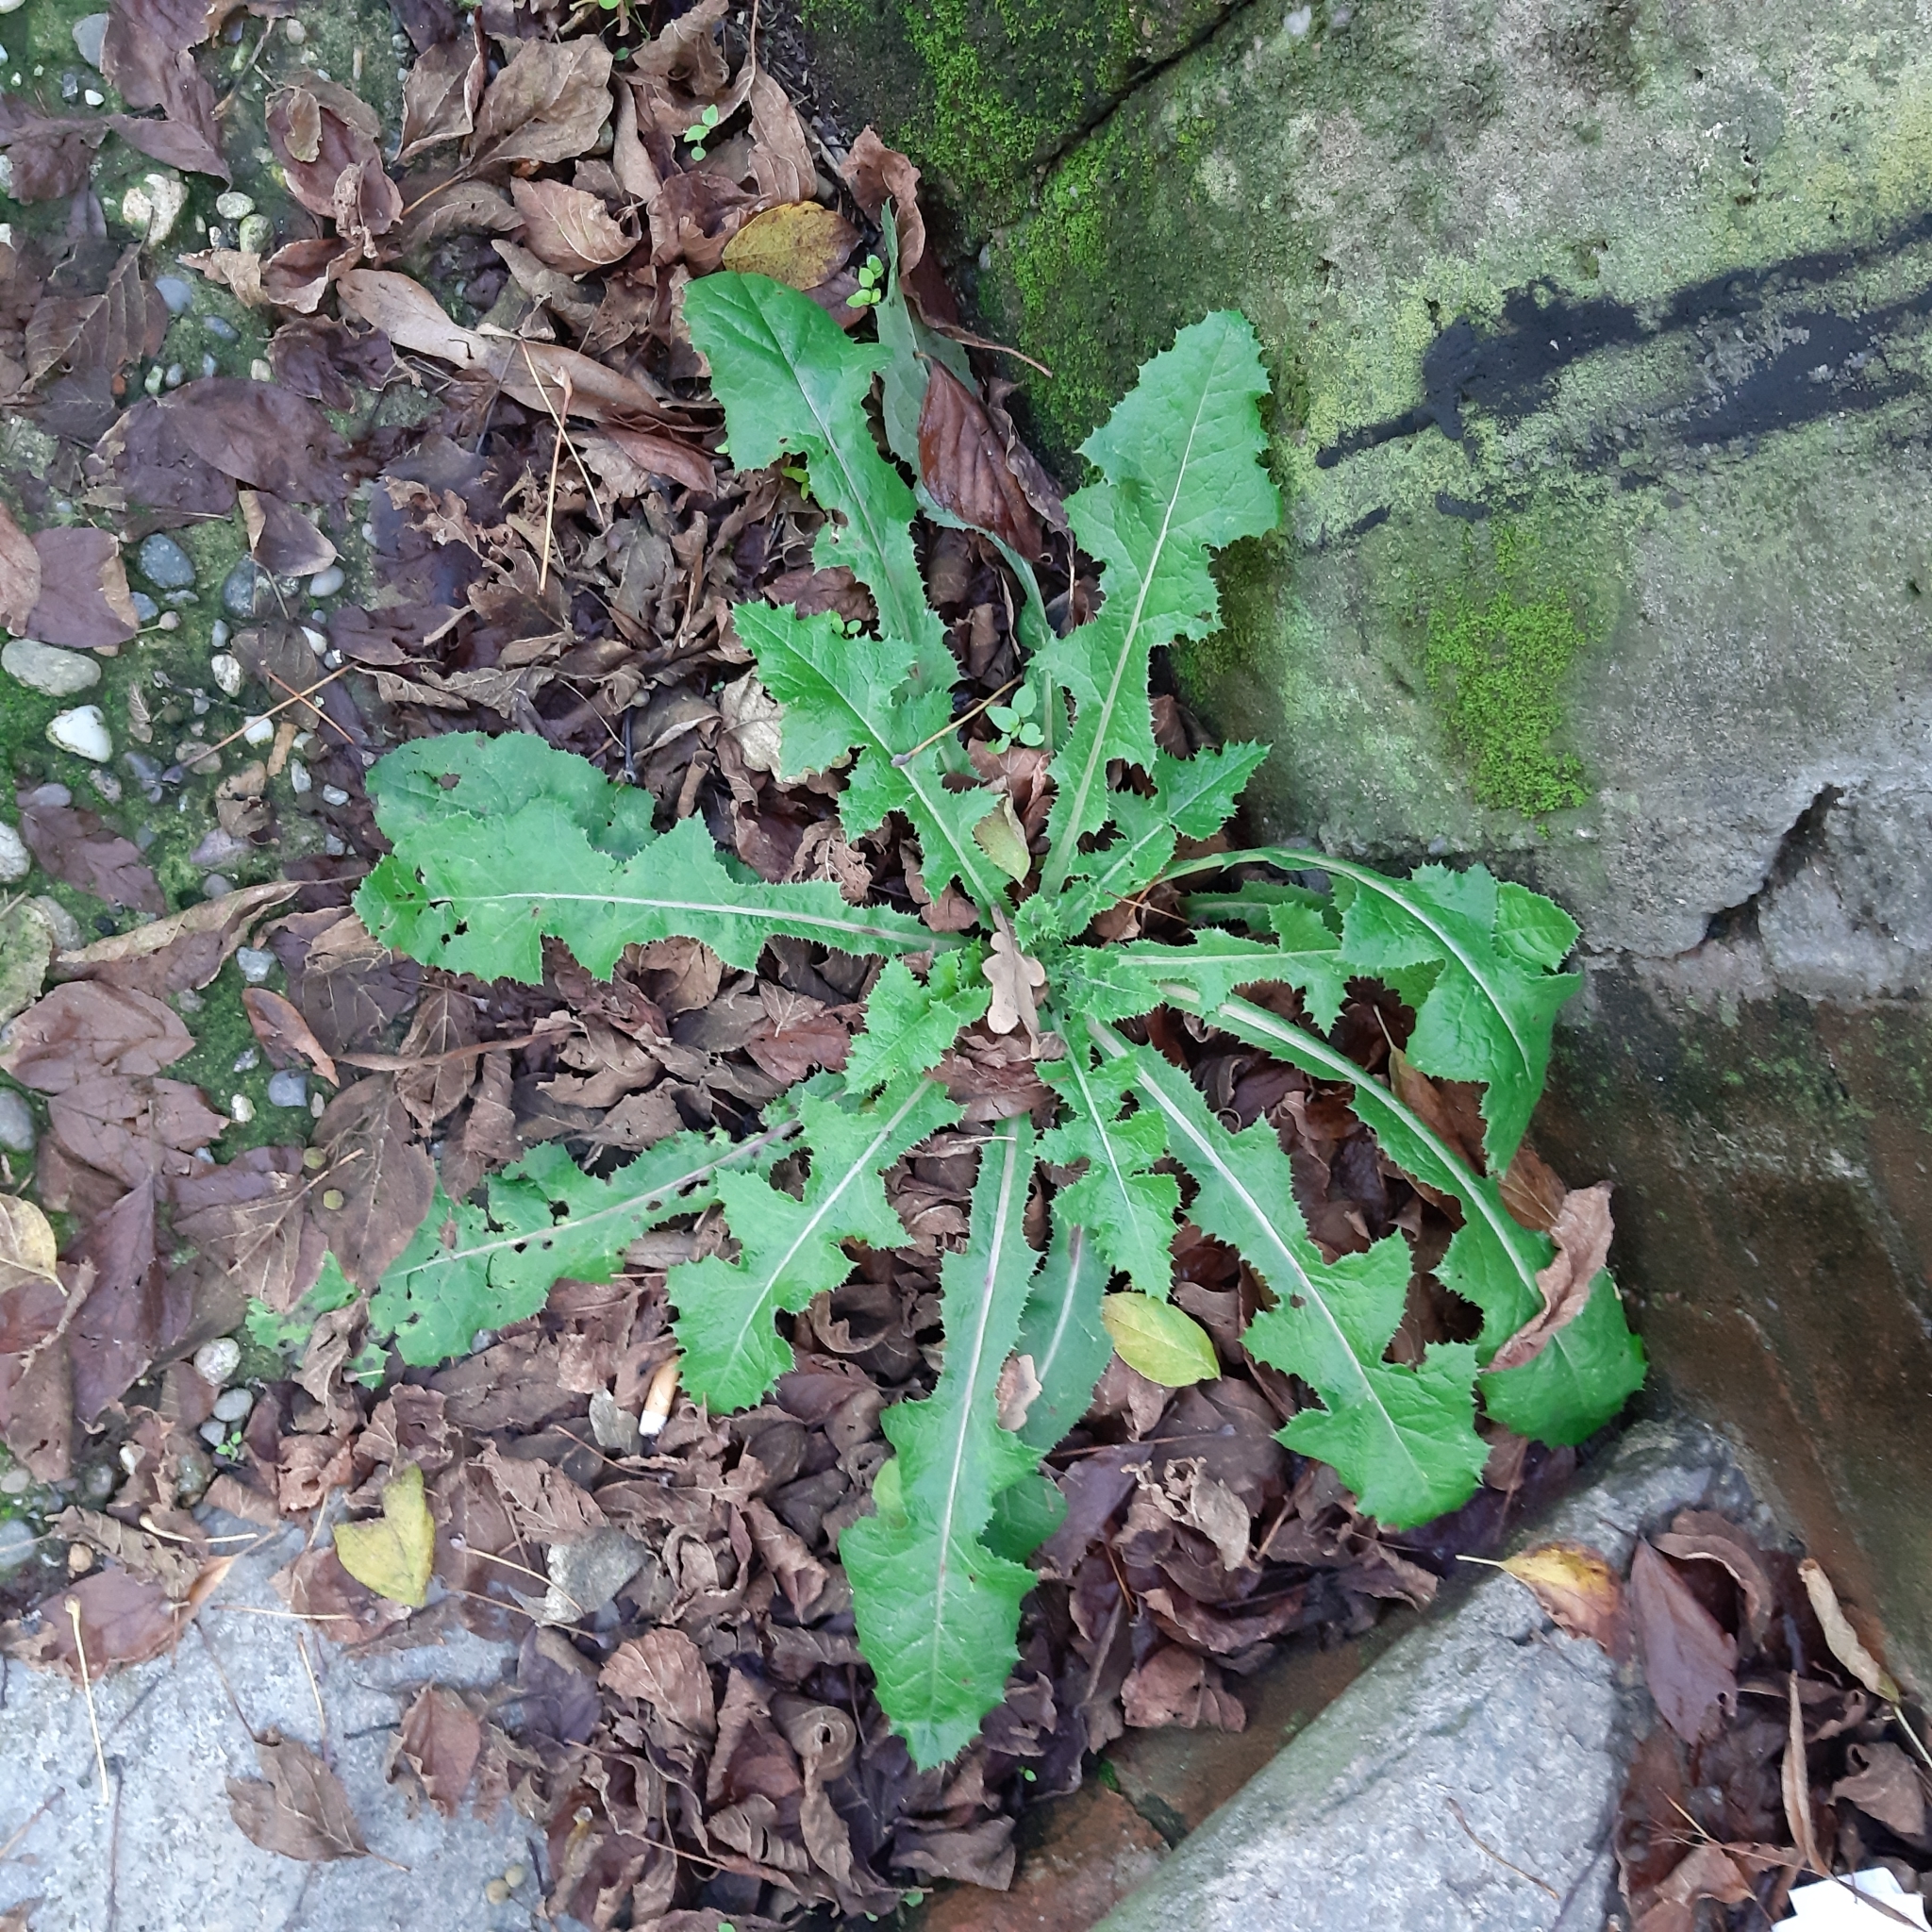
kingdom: Plantae
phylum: Tracheophyta
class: Magnoliopsida
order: Asterales
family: Asteraceae
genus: Sonchus
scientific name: Sonchus asper
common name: Prickly sow-thistle
